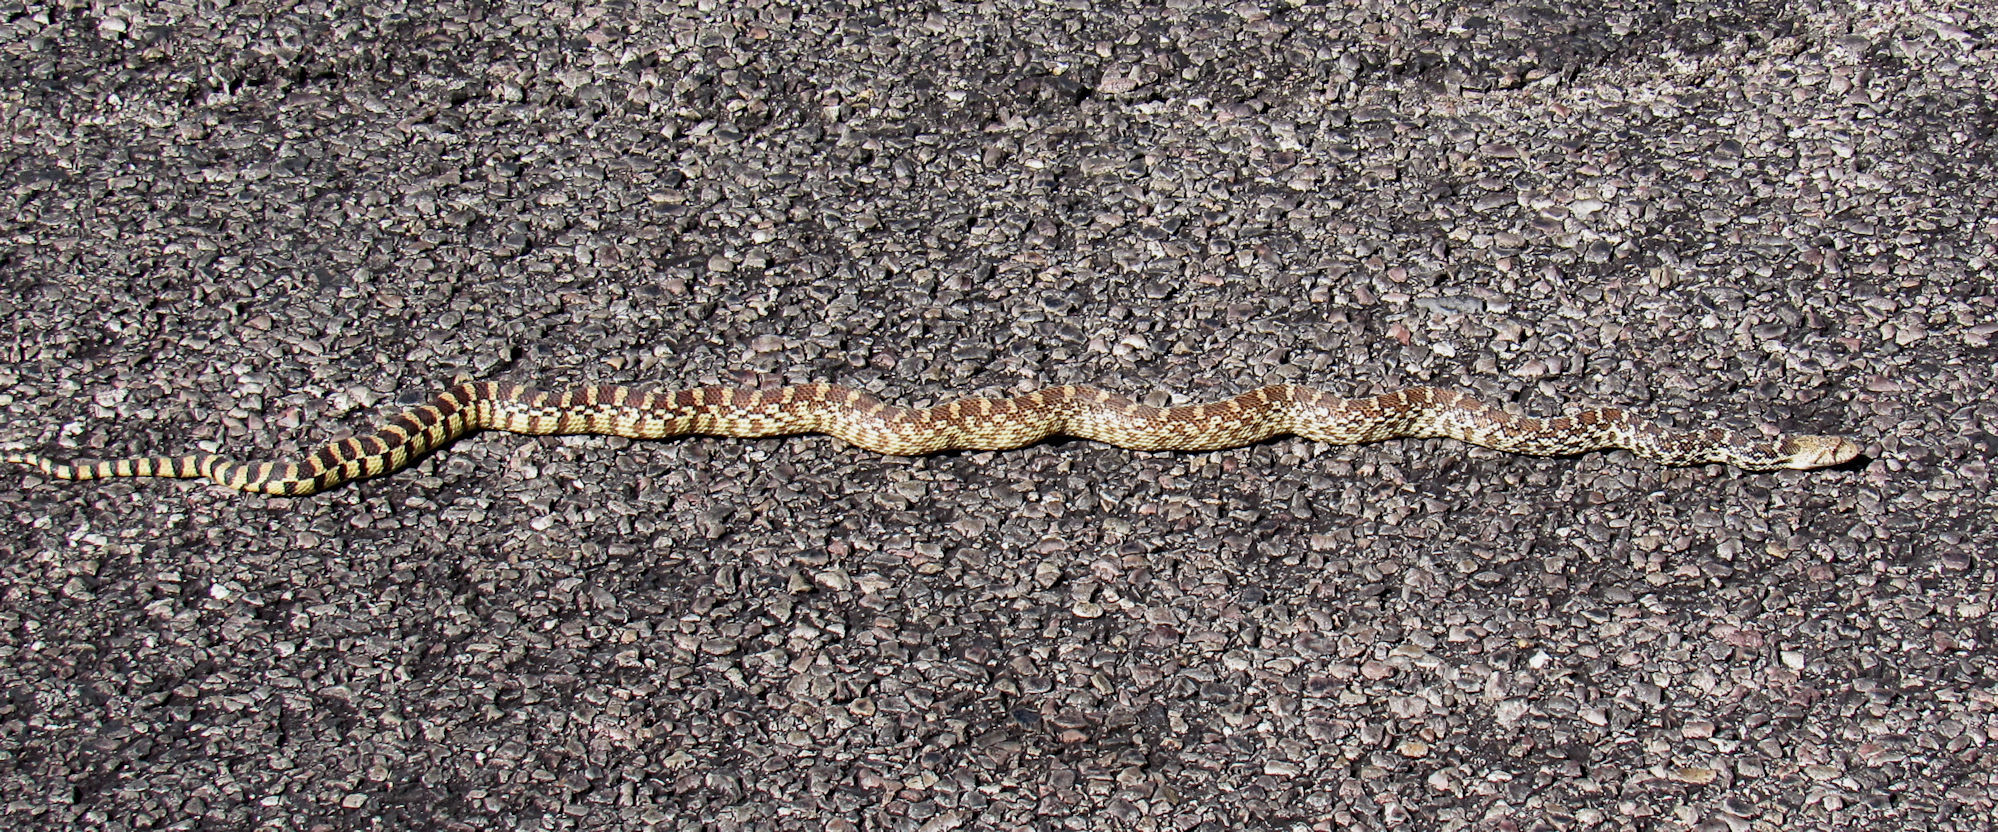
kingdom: Animalia
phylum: Chordata
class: Squamata
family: Colubridae
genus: Pituophis
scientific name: Pituophis catenifer
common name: Gopher snake
